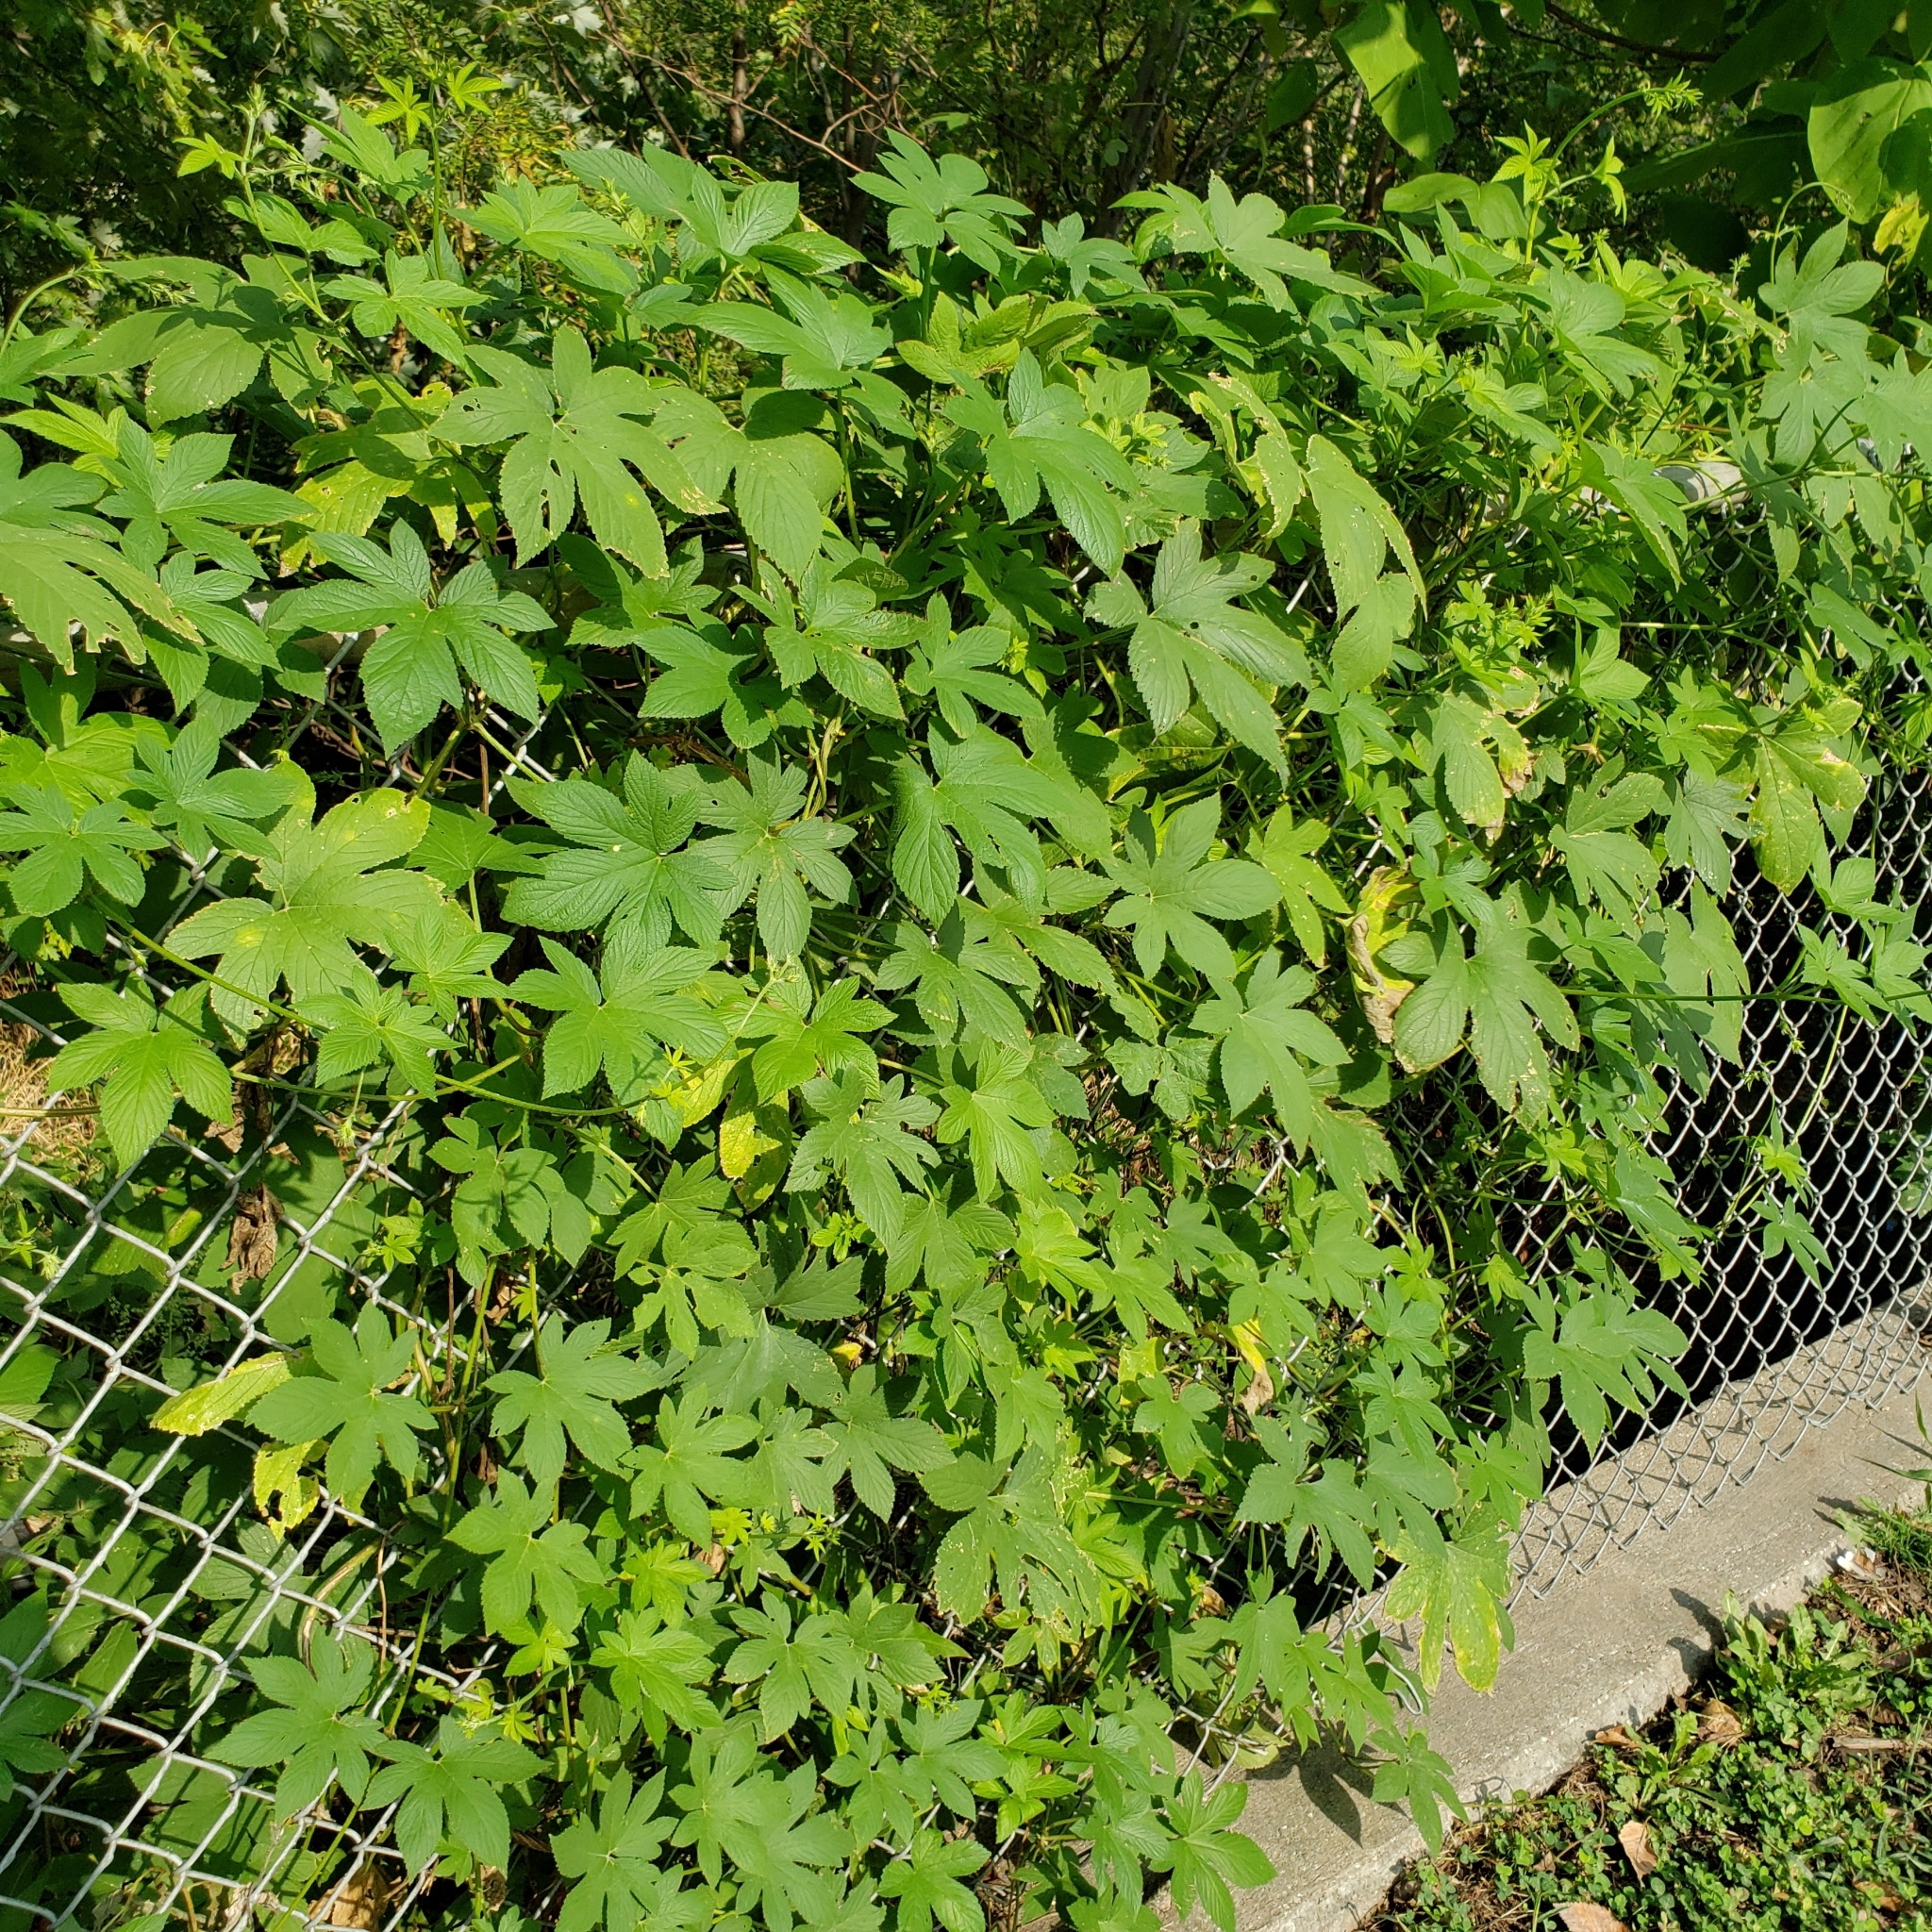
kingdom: Plantae
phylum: Tracheophyta
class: Magnoliopsida
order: Rosales
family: Cannabaceae
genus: Humulus
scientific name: Humulus scandens
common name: Japanese hop
